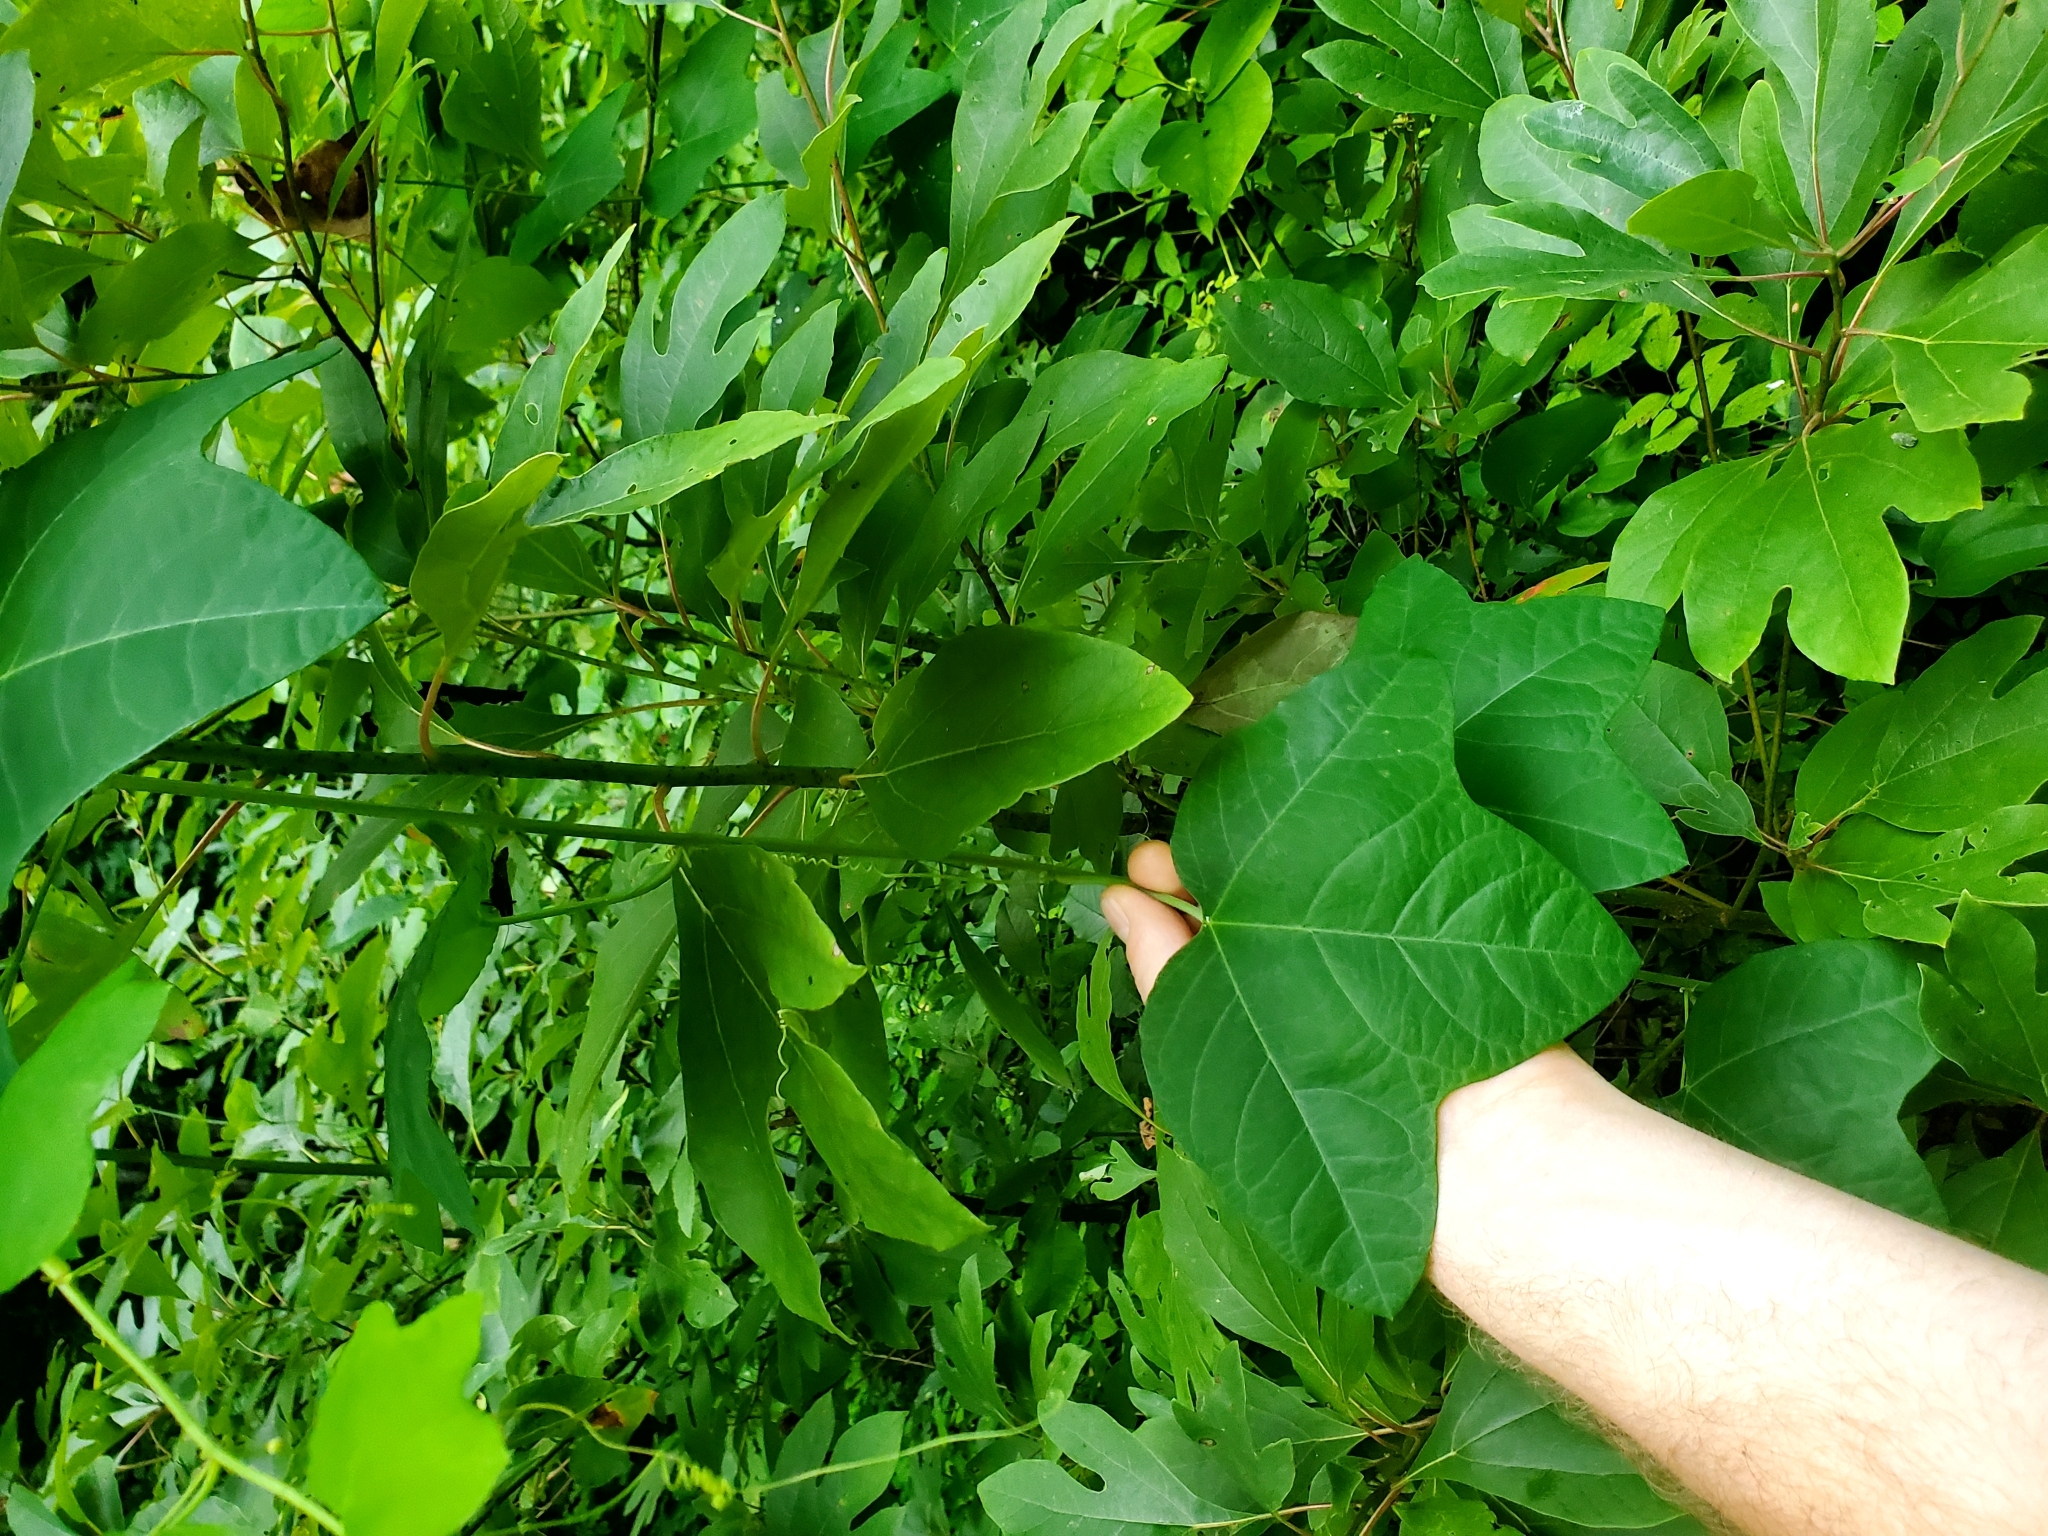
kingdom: Plantae
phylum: Tracheophyta
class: Magnoliopsida
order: Malpighiales
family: Passifloraceae
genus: Passiflora
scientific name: Passiflora lutea
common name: Yellow passionflower
